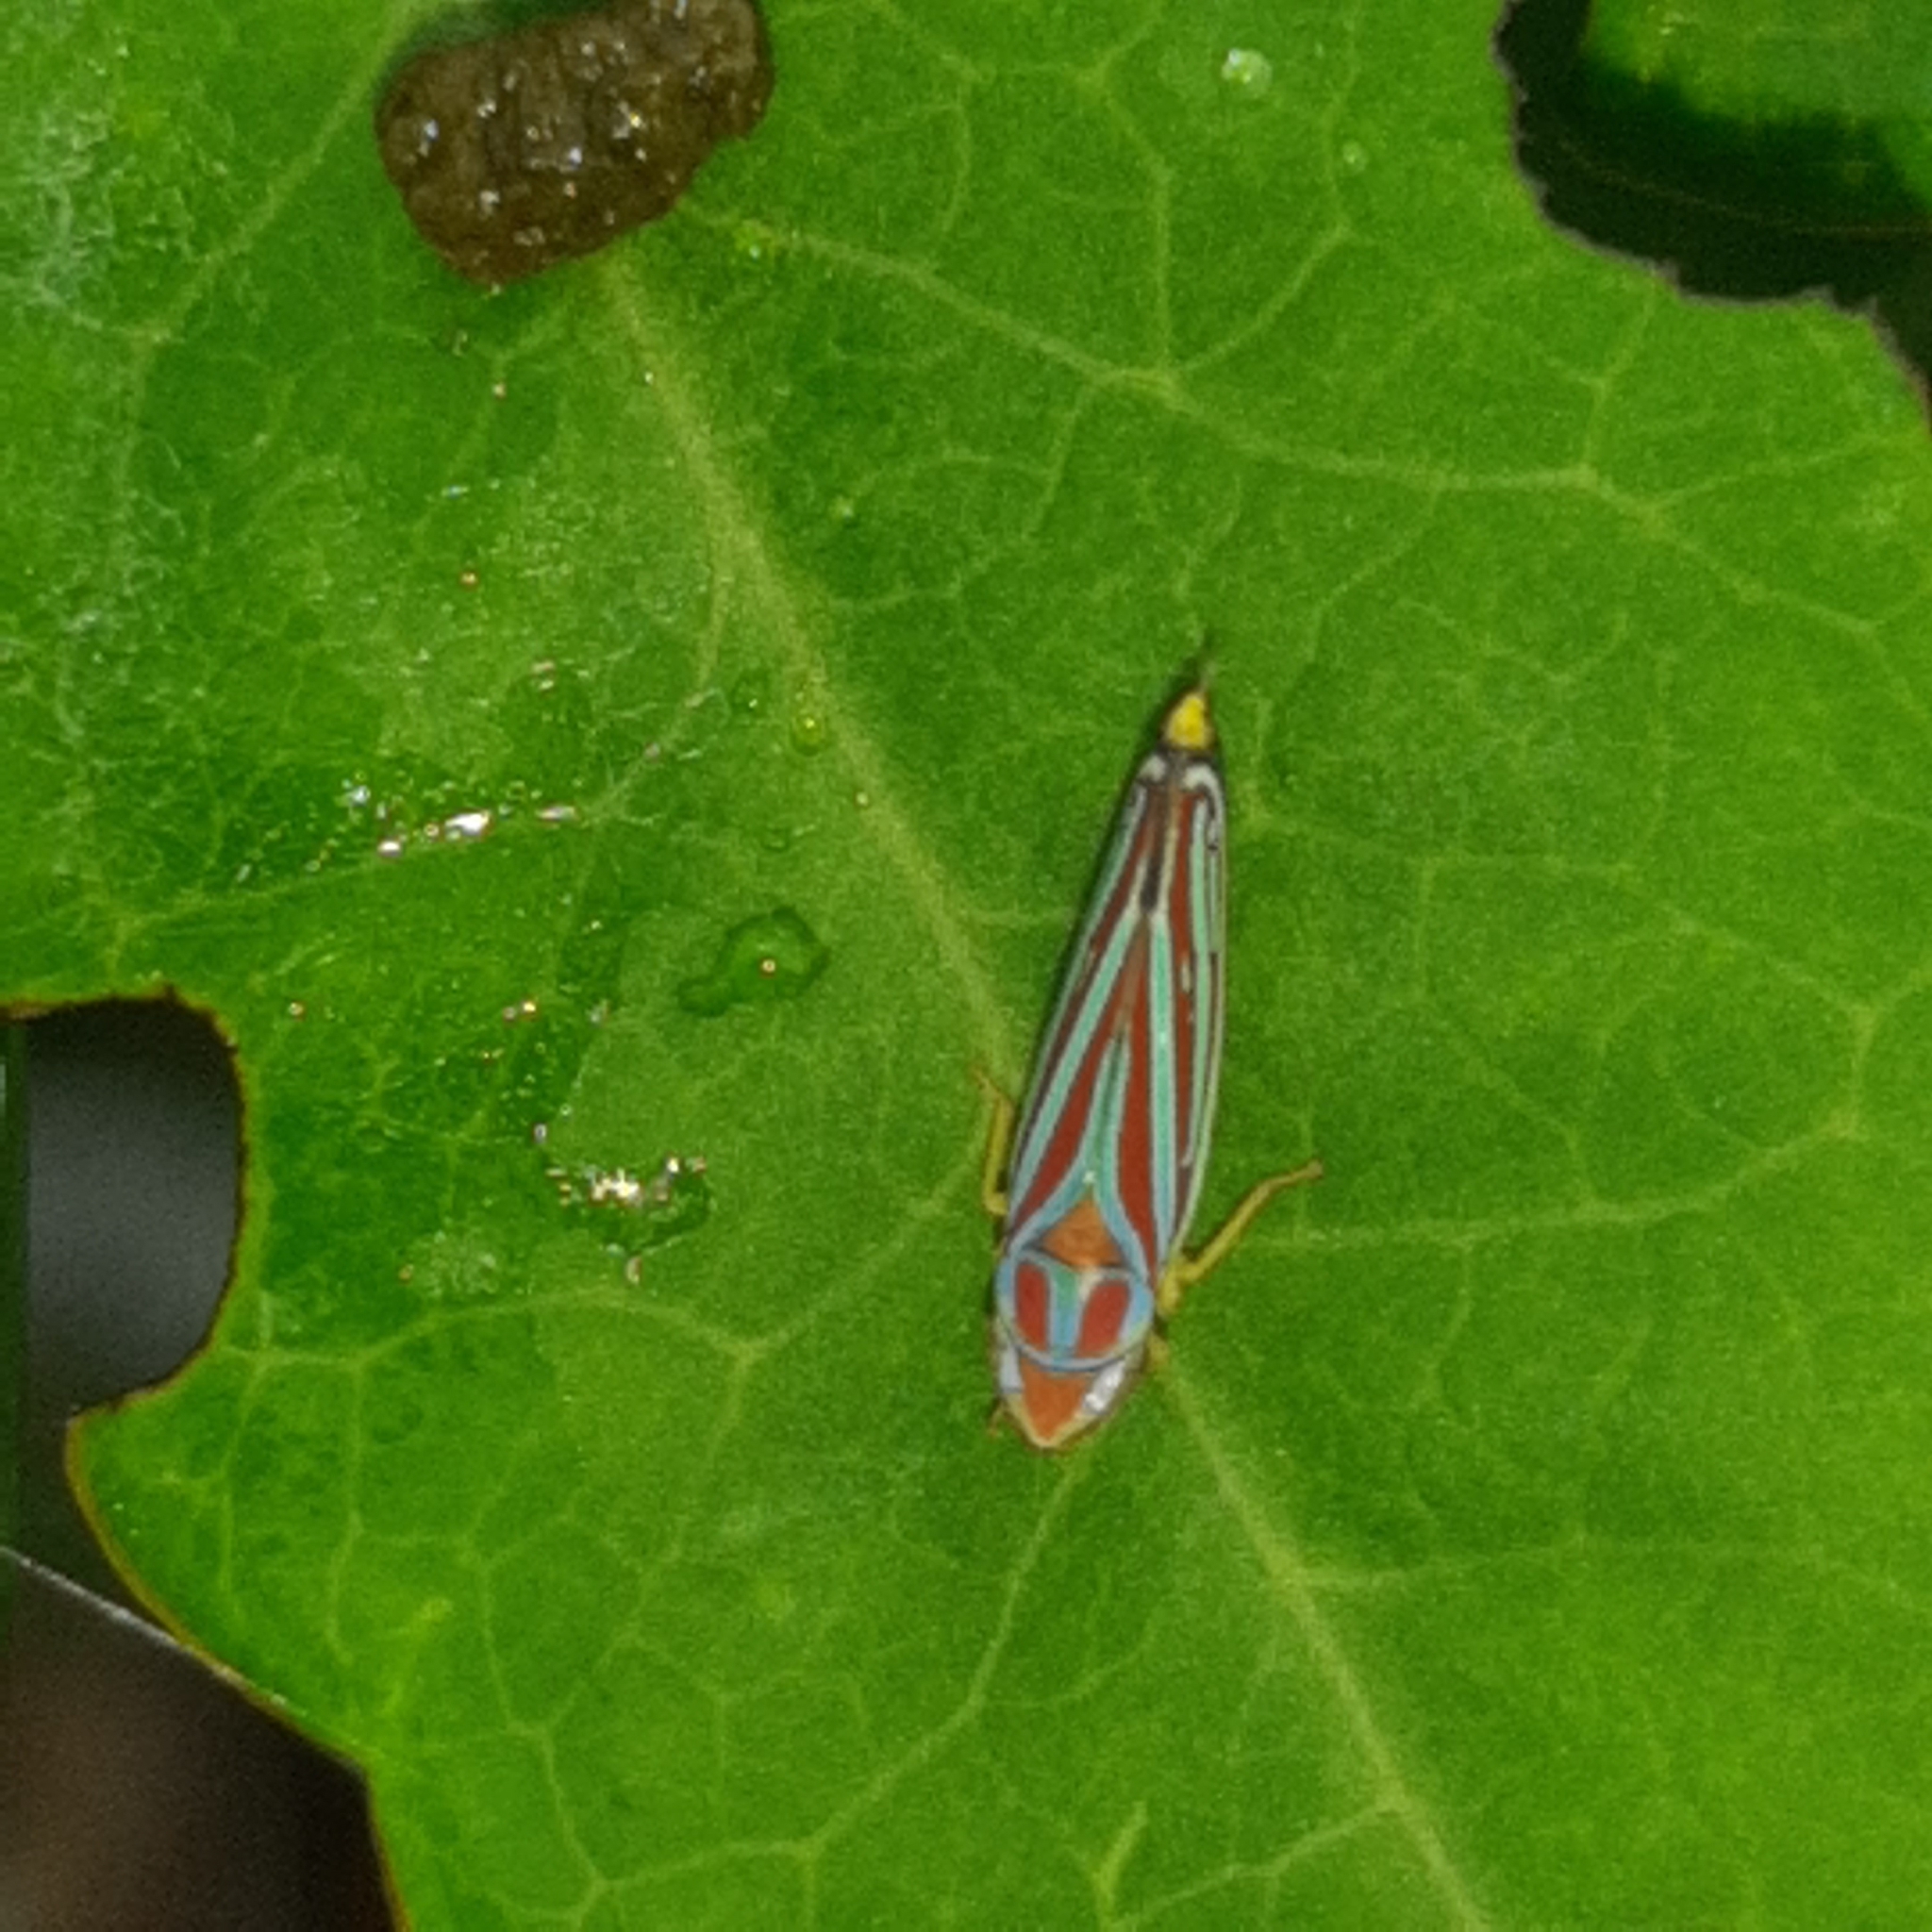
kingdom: Animalia
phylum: Arthropoda
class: Insecta
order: Hemiptera
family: Cicadellidae
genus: Graphocephala
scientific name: Graphocephala
